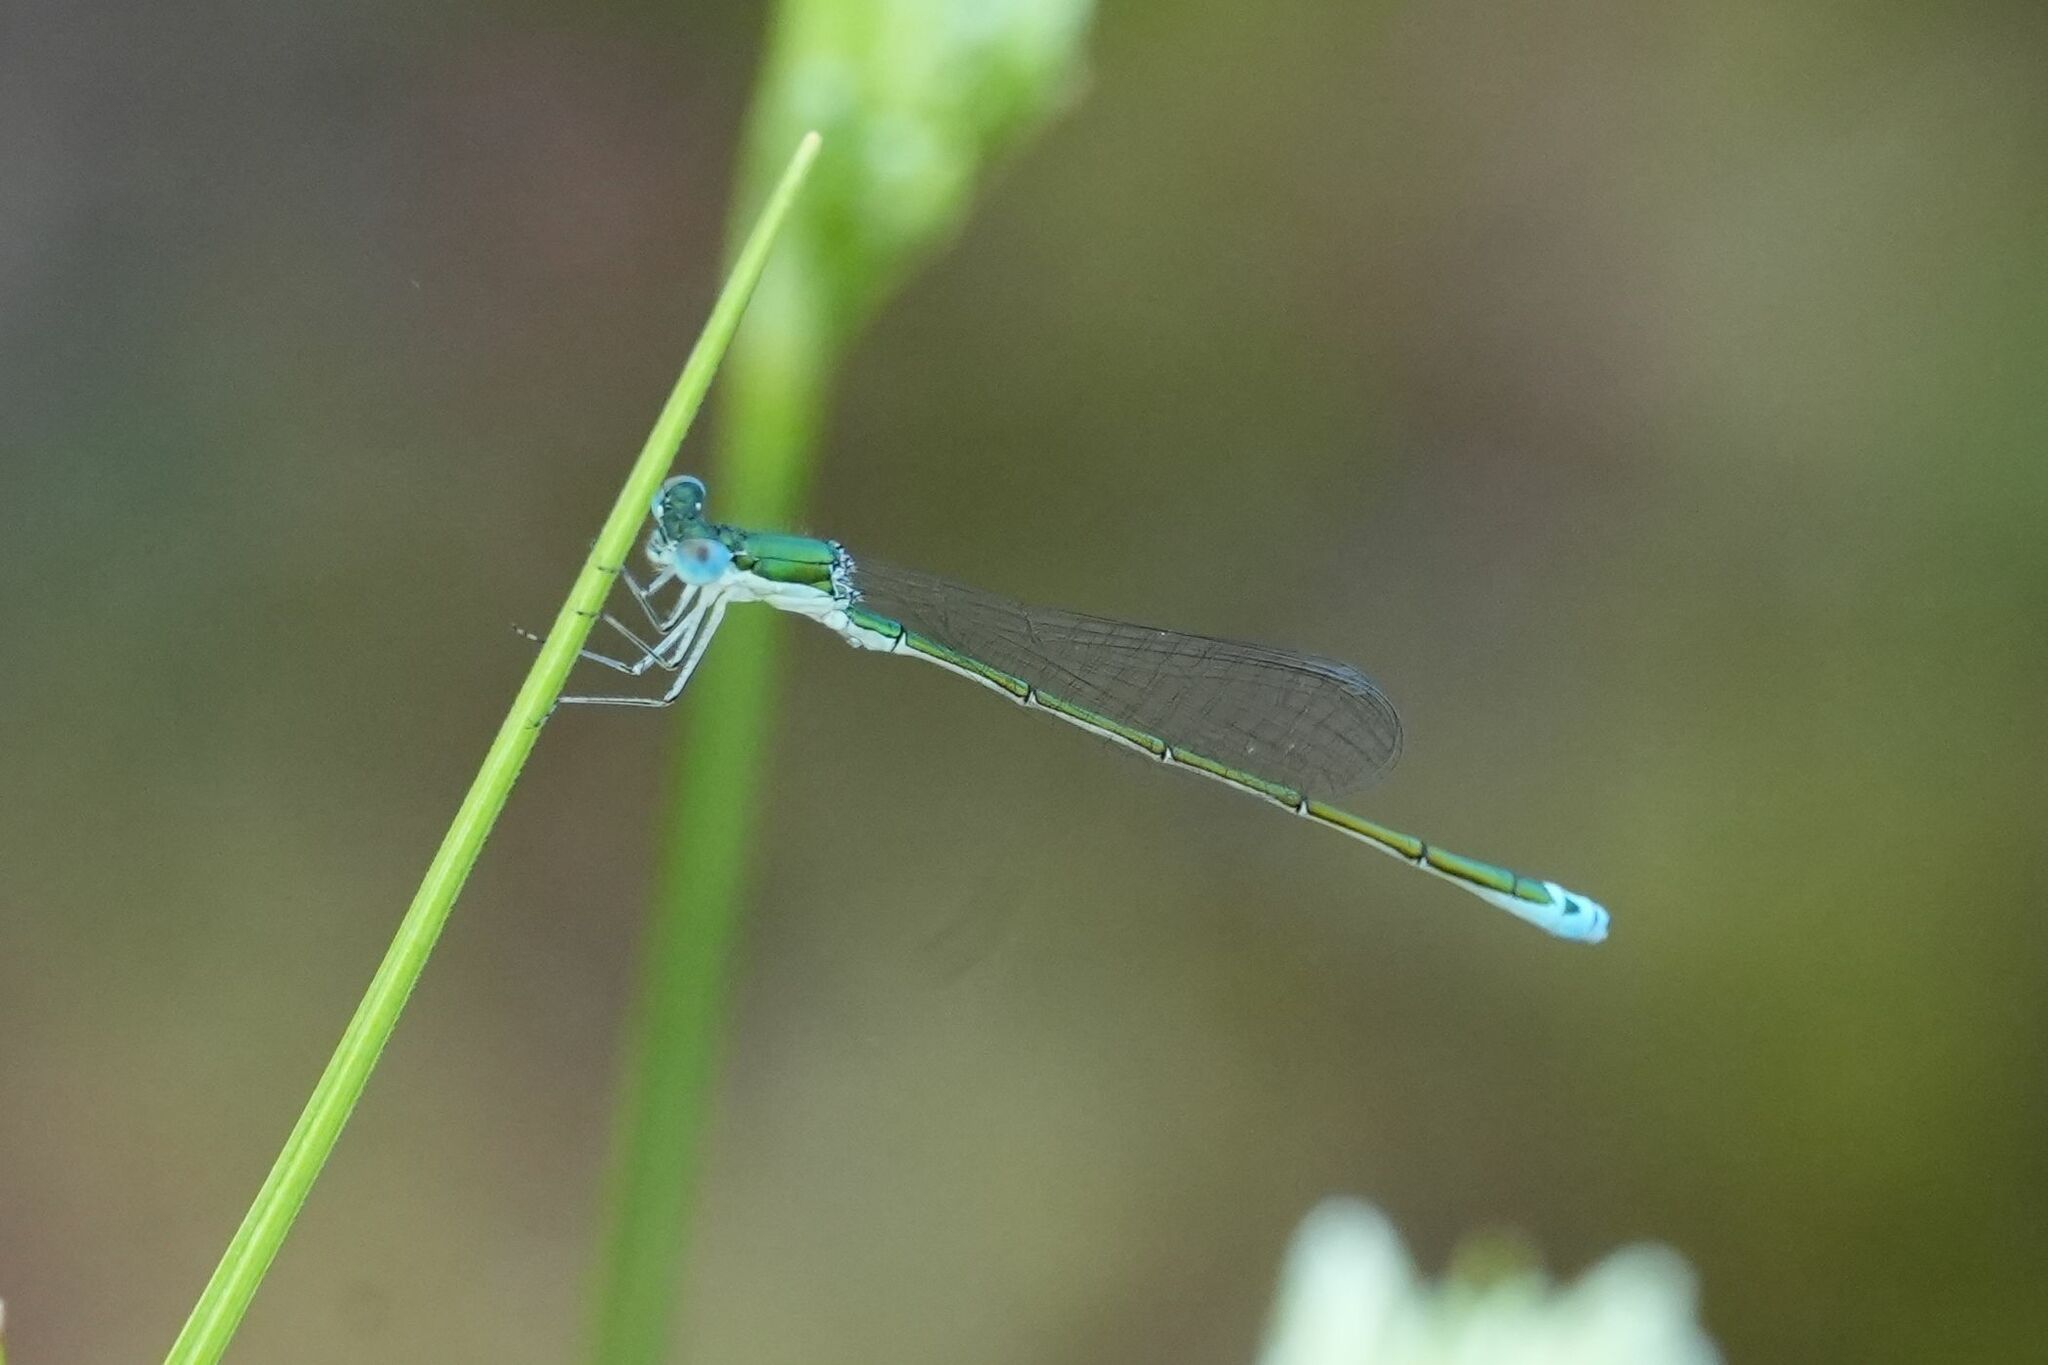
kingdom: Animalia
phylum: Arthropoda
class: Insecta
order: Odonata
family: Coenagrionidae
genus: Nehalennia
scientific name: Nehalennia irene
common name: Sedge sprite
